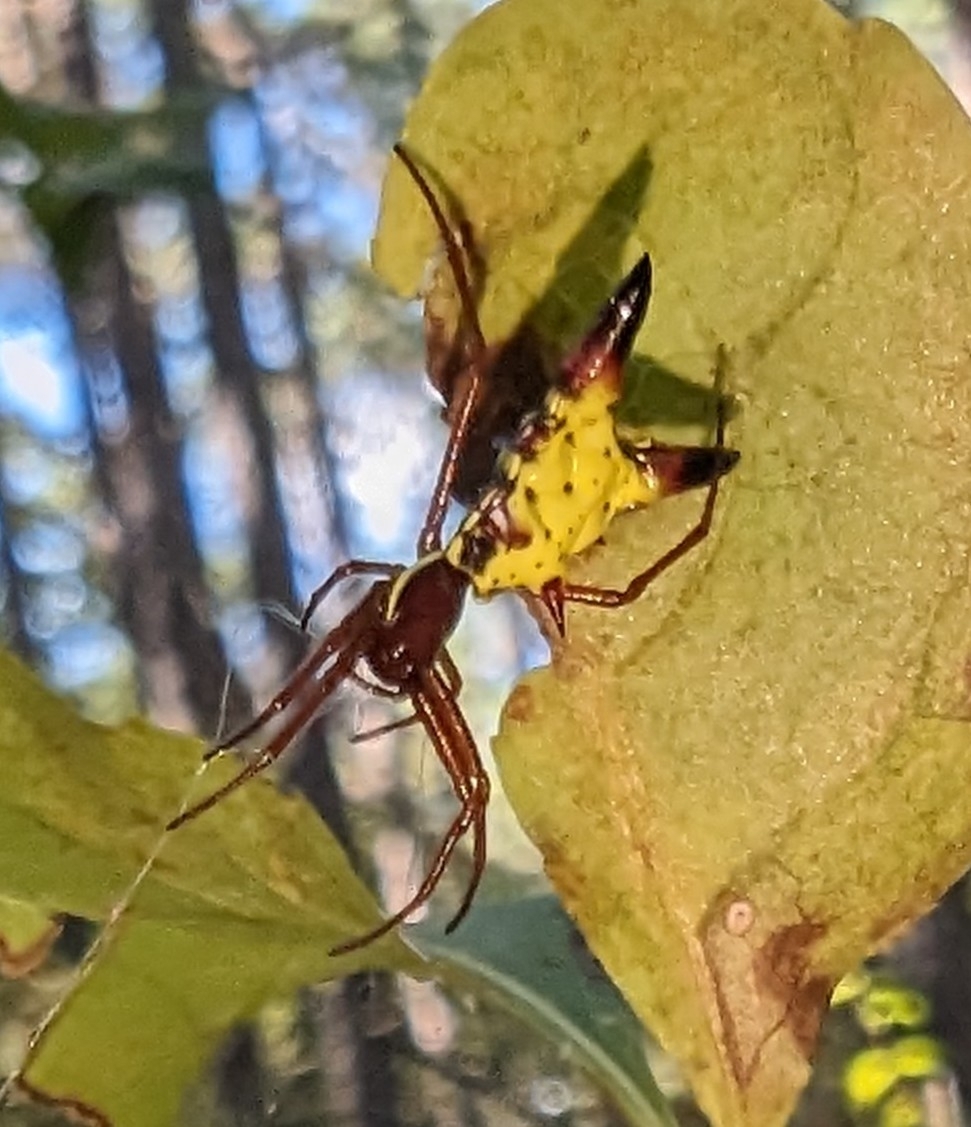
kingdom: Animalia
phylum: Arthropoda
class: Arachnida
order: Araneae
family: Araneidae
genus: Micrathena
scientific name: Micrathena sagittata
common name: Orb weavers
